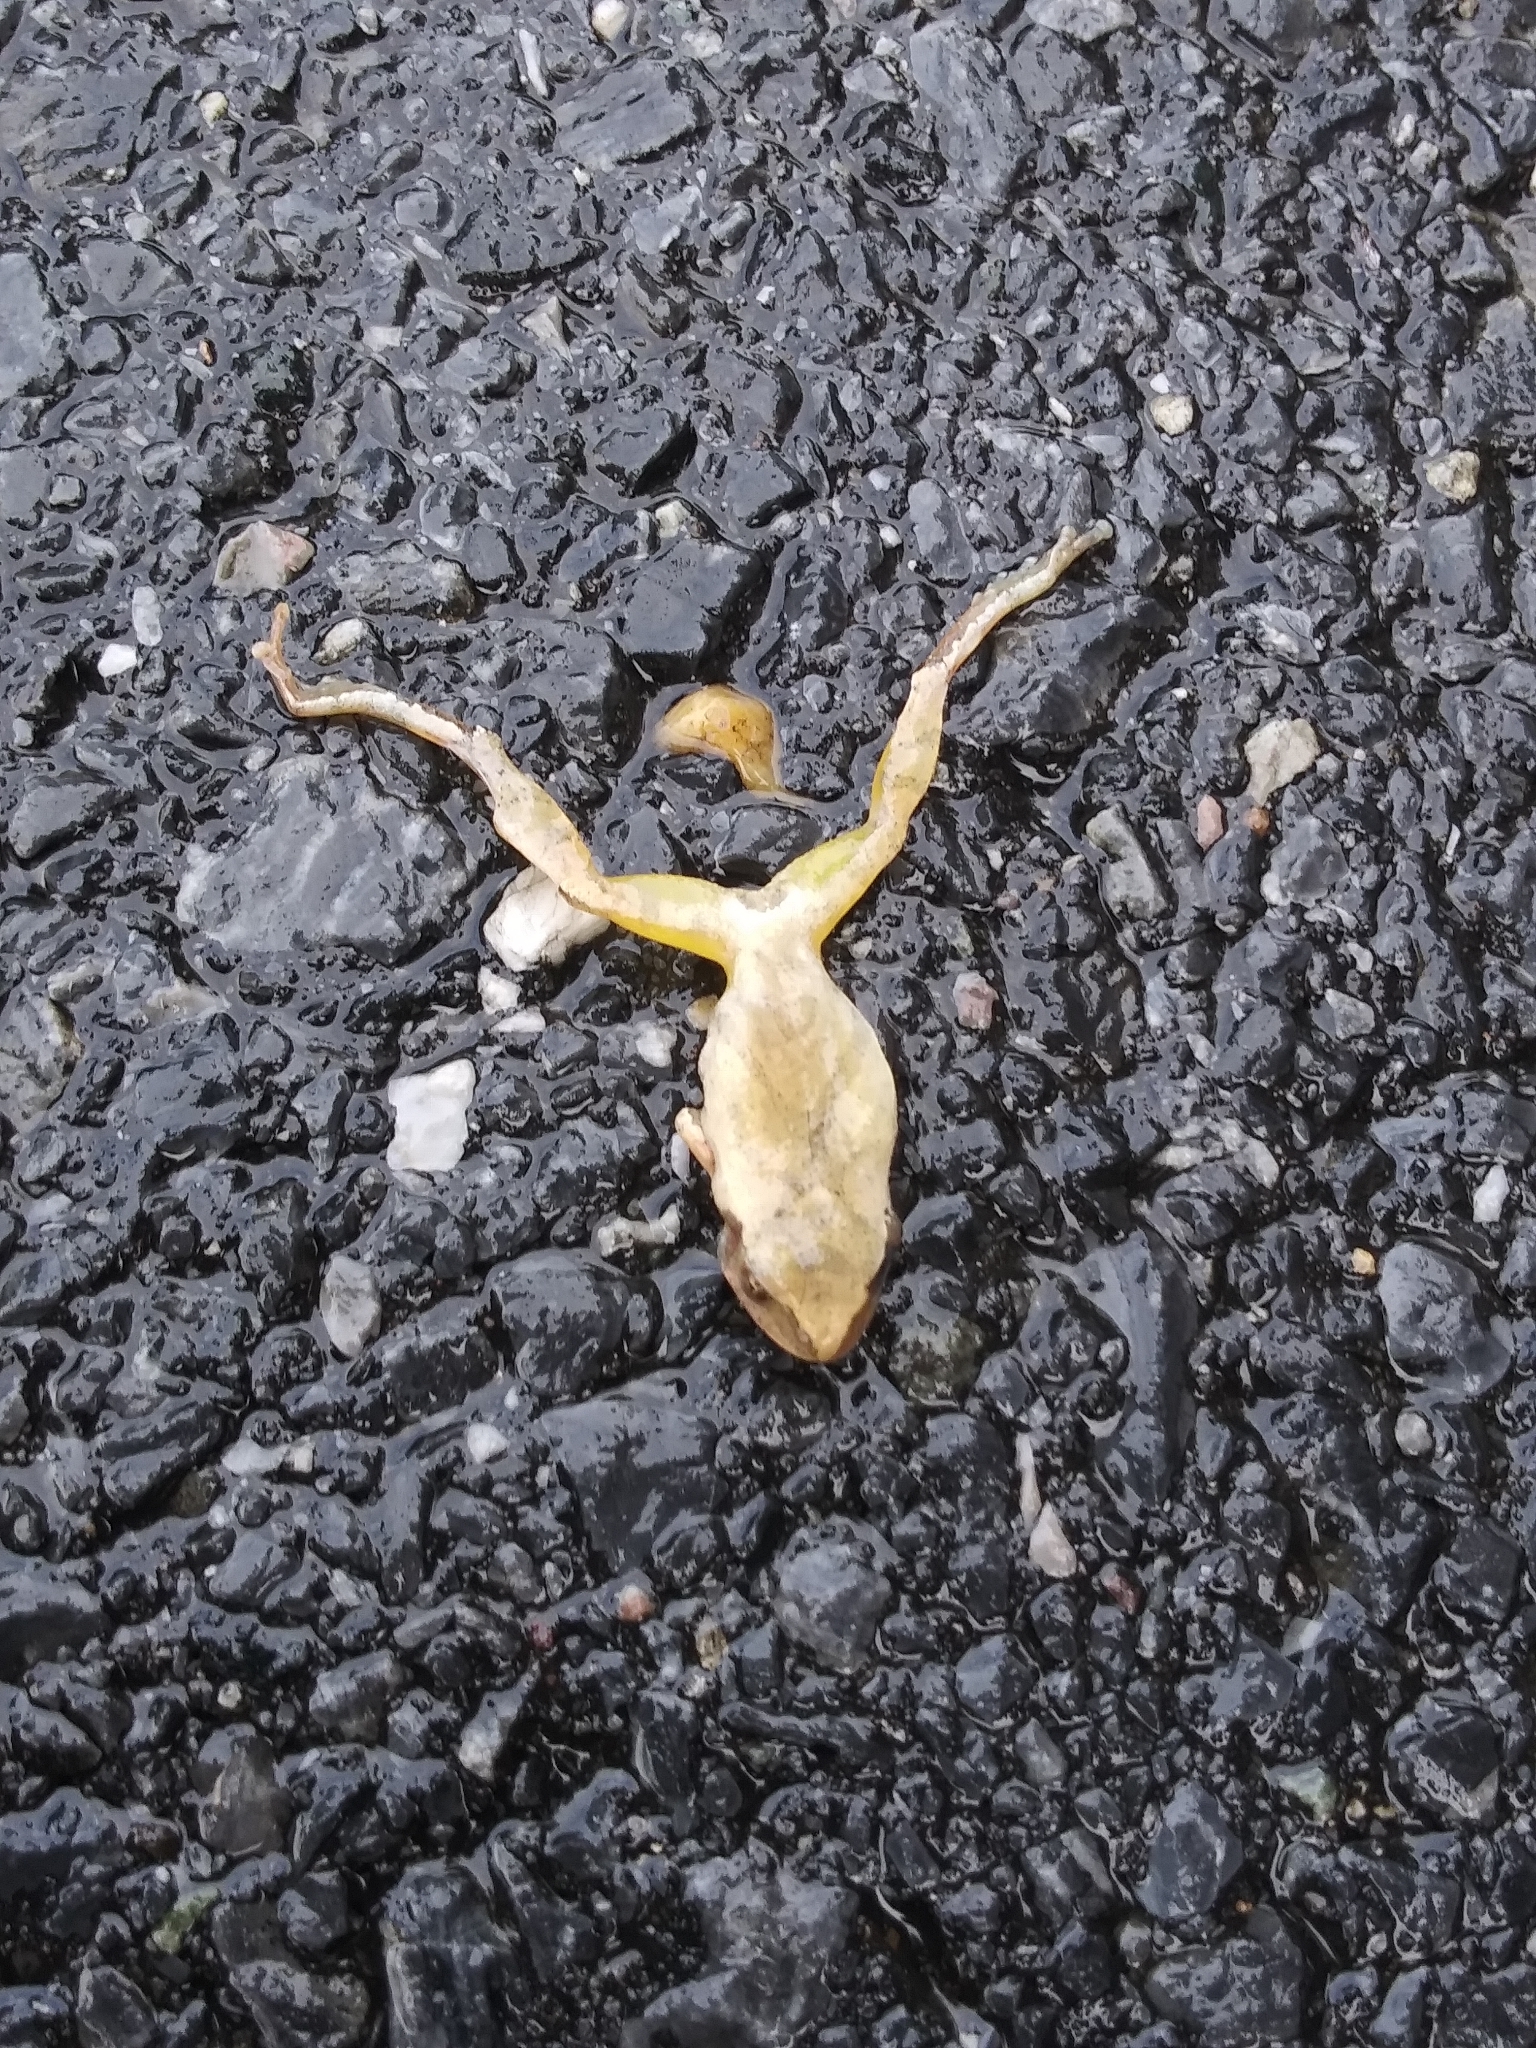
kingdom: Animalia
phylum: Chordata
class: Amphibia
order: Anura
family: Hylidae
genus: Pseudacris
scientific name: Pseudacris crucifer
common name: Spring peeper
